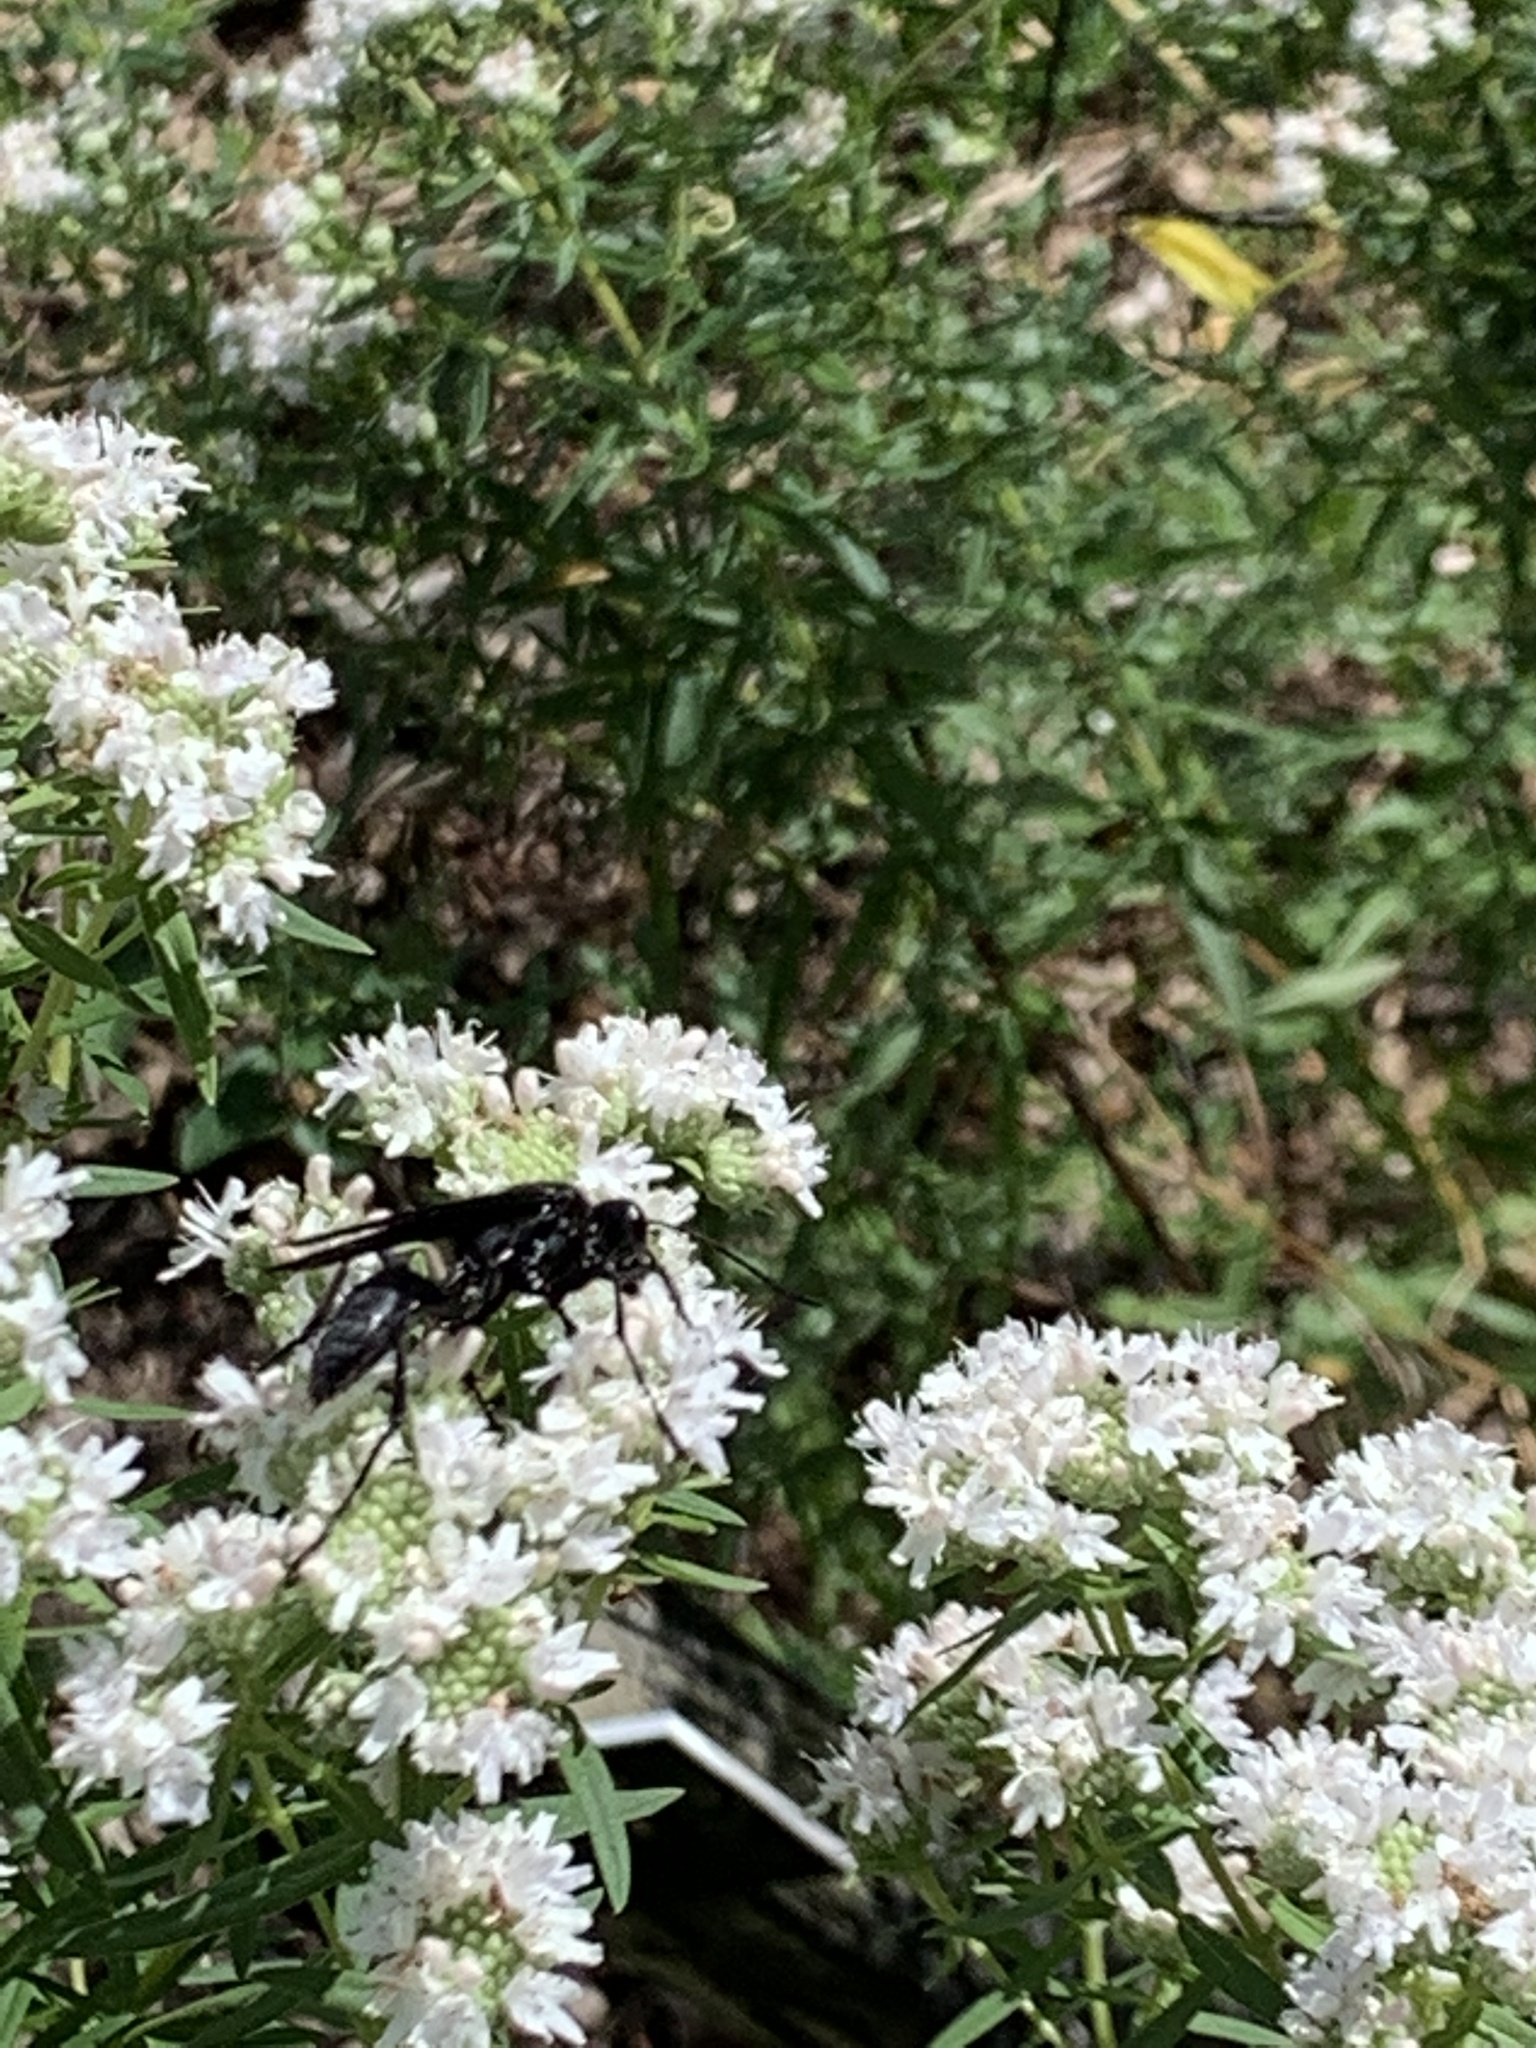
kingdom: Animalia
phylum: Arthropoda
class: Insecta
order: Hymenoptera
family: Sphecidae
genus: Sphex
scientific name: Sphex pensylvanicus
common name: Great black digger wasp
